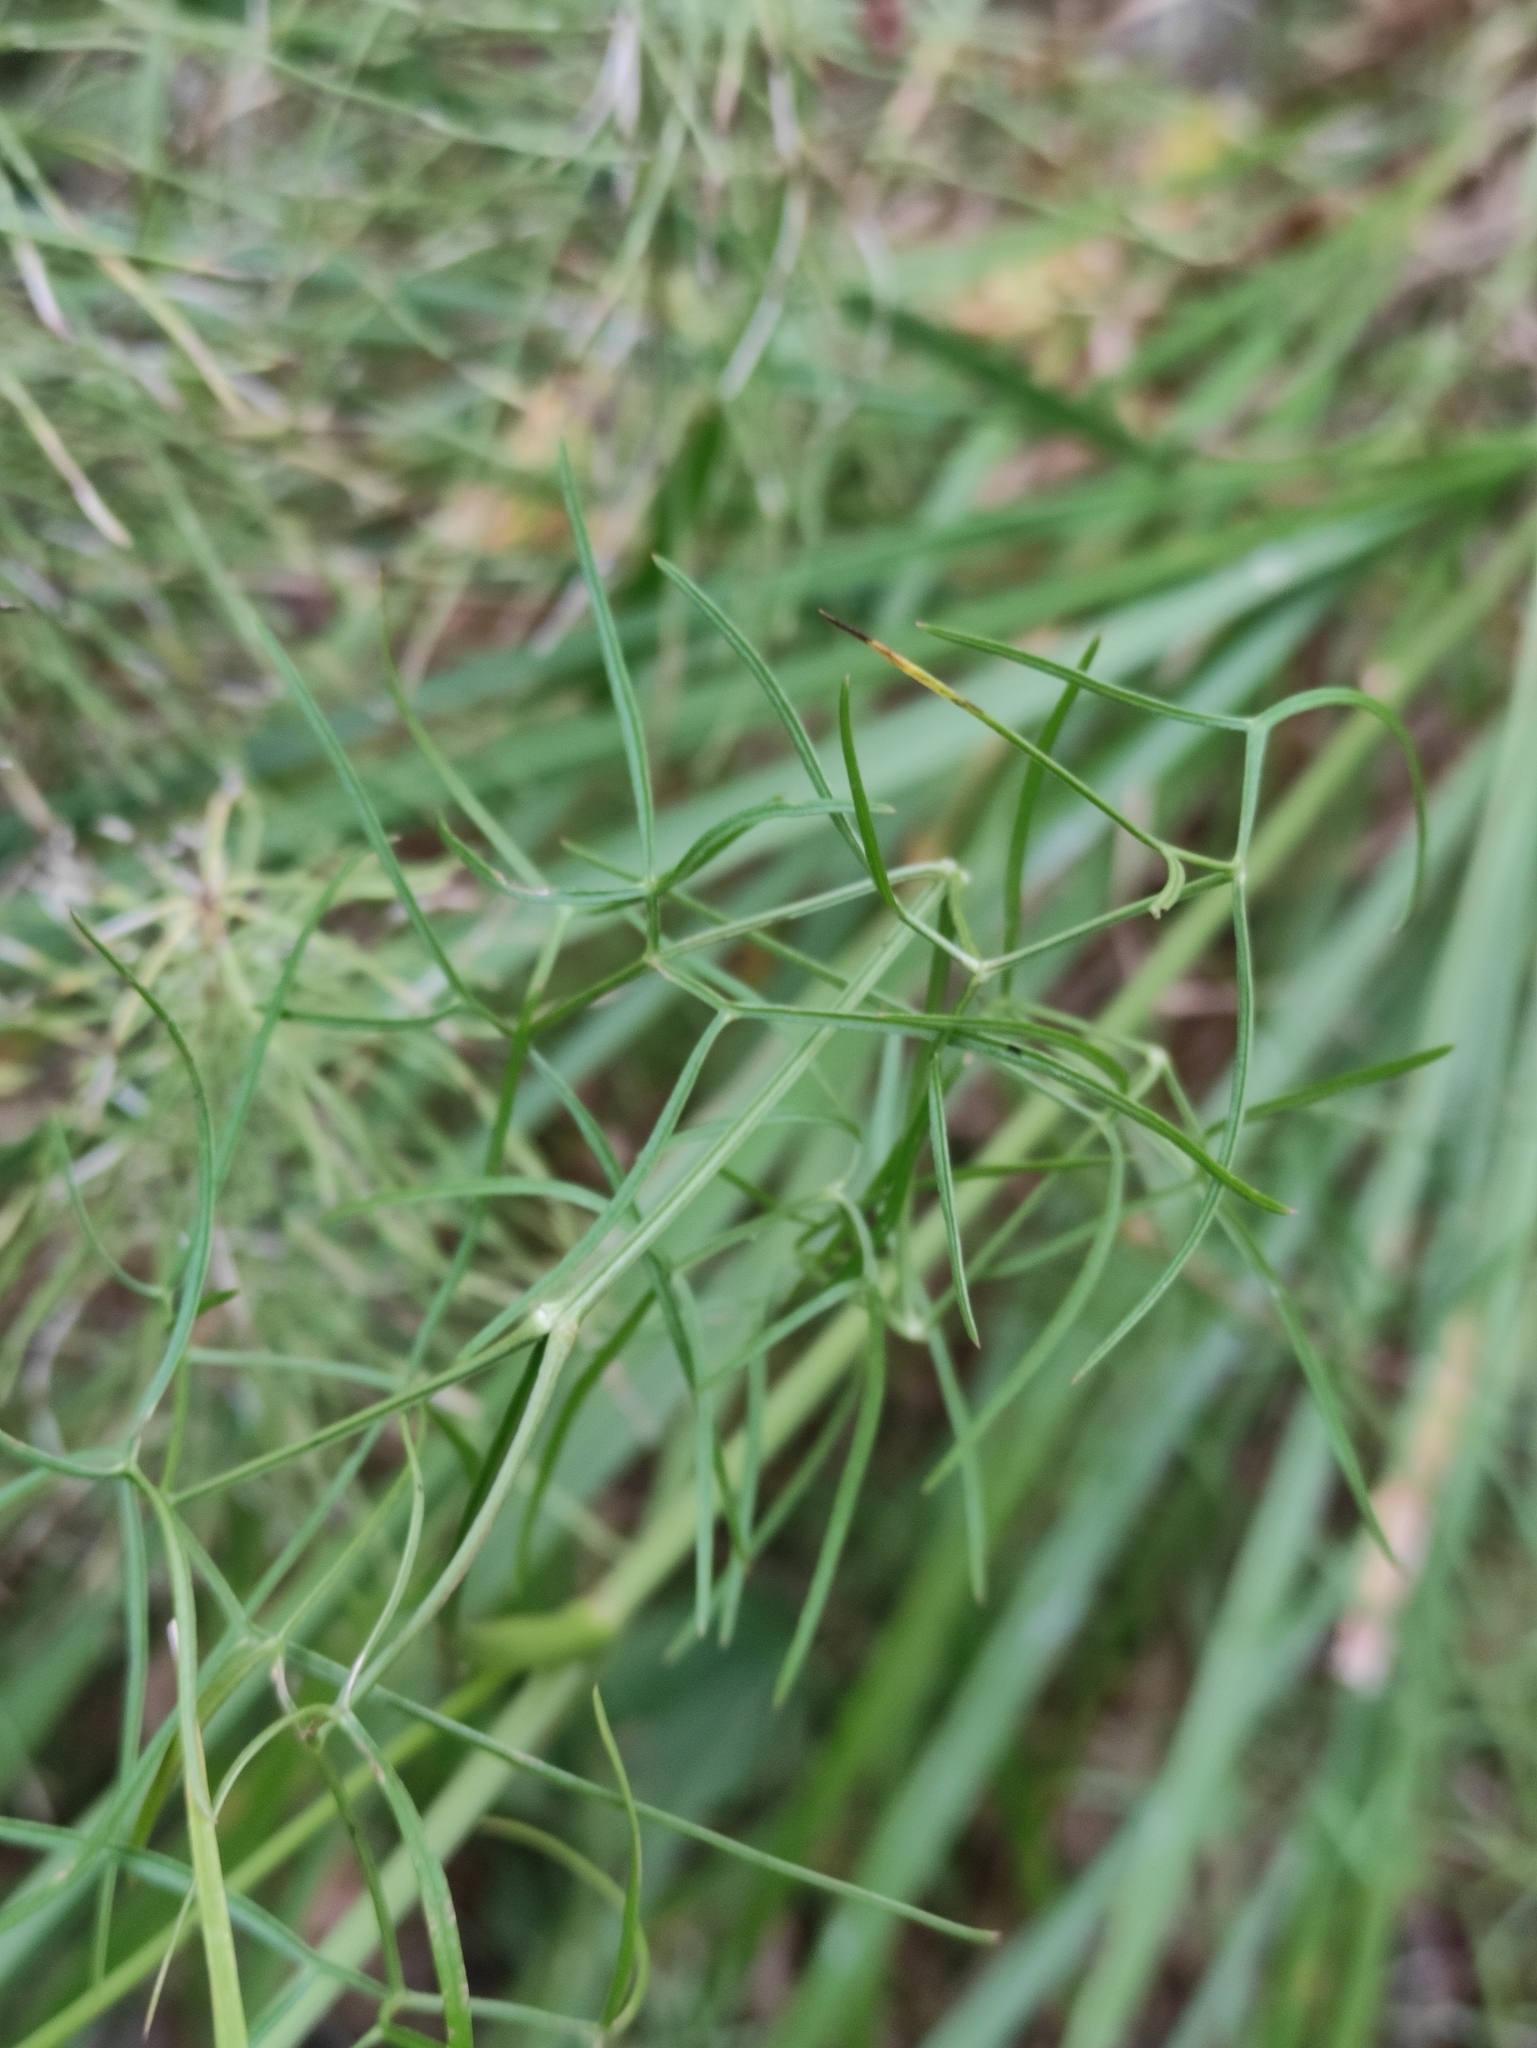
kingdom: Plantae
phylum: Tracheophyta
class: Magnoliopsida
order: Apiales
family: Apiaceae
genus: Ostericum
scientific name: Ostericum tenuifolium
